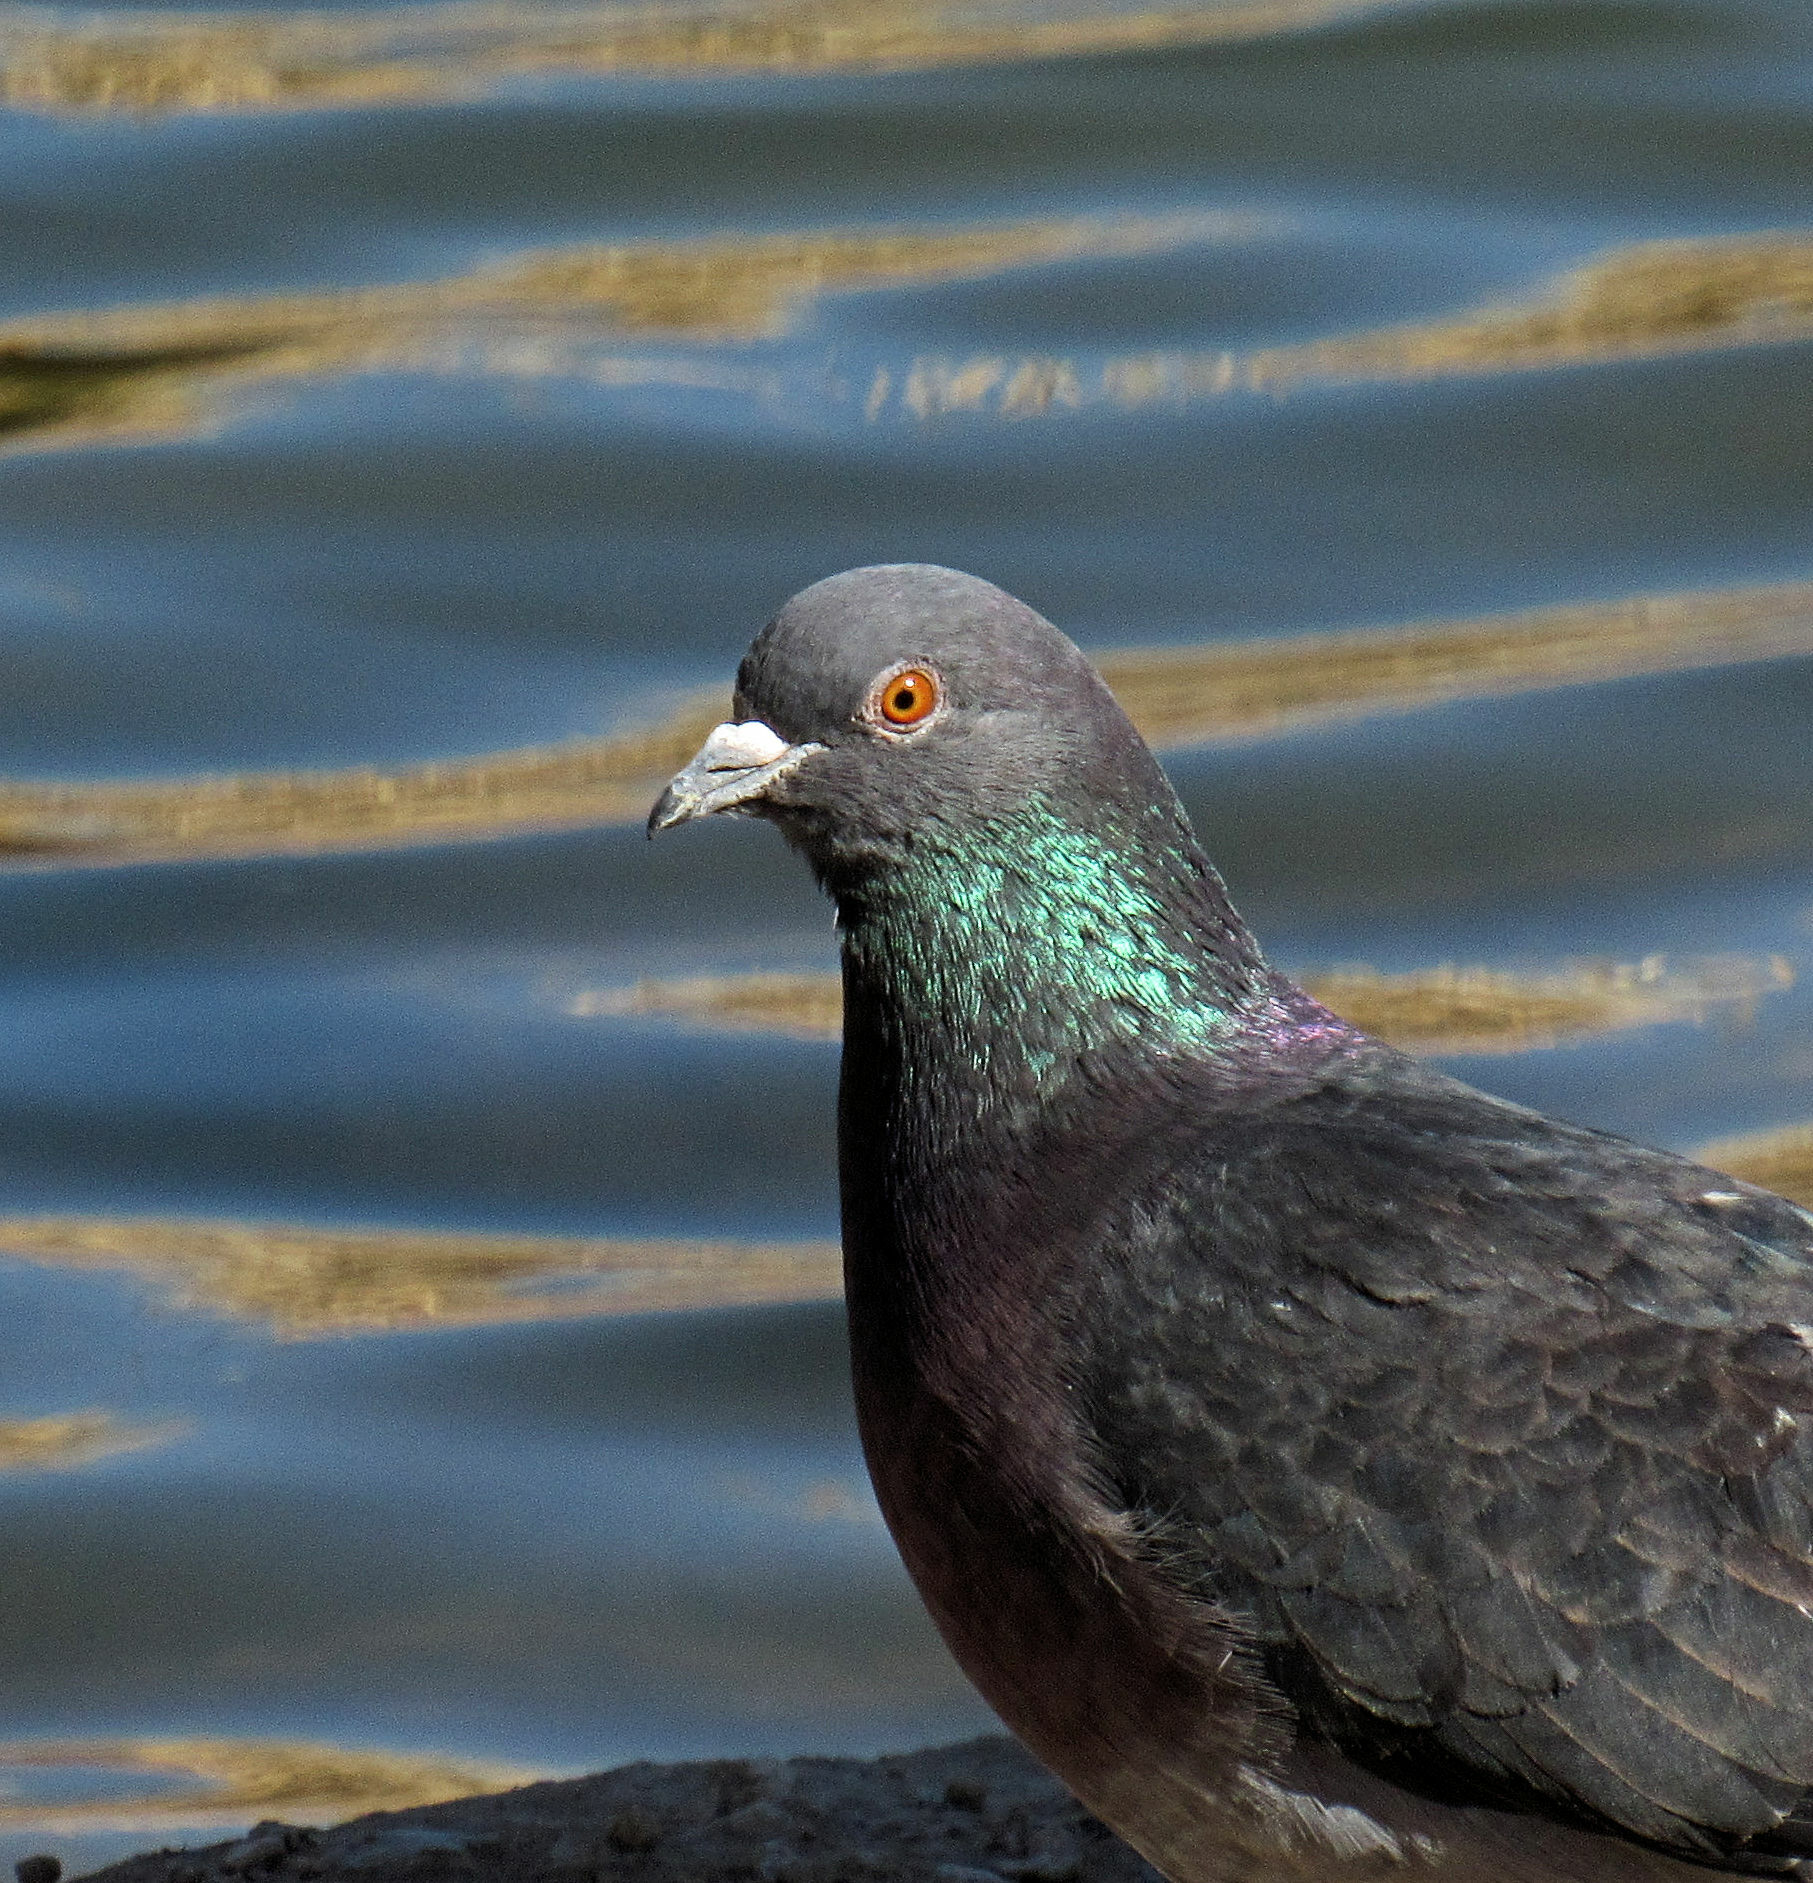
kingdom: Animalia
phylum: Chordata
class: Aves
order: Columbiformes
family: Columbidae
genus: Columba
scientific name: Columba livia
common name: Rock pigeon
